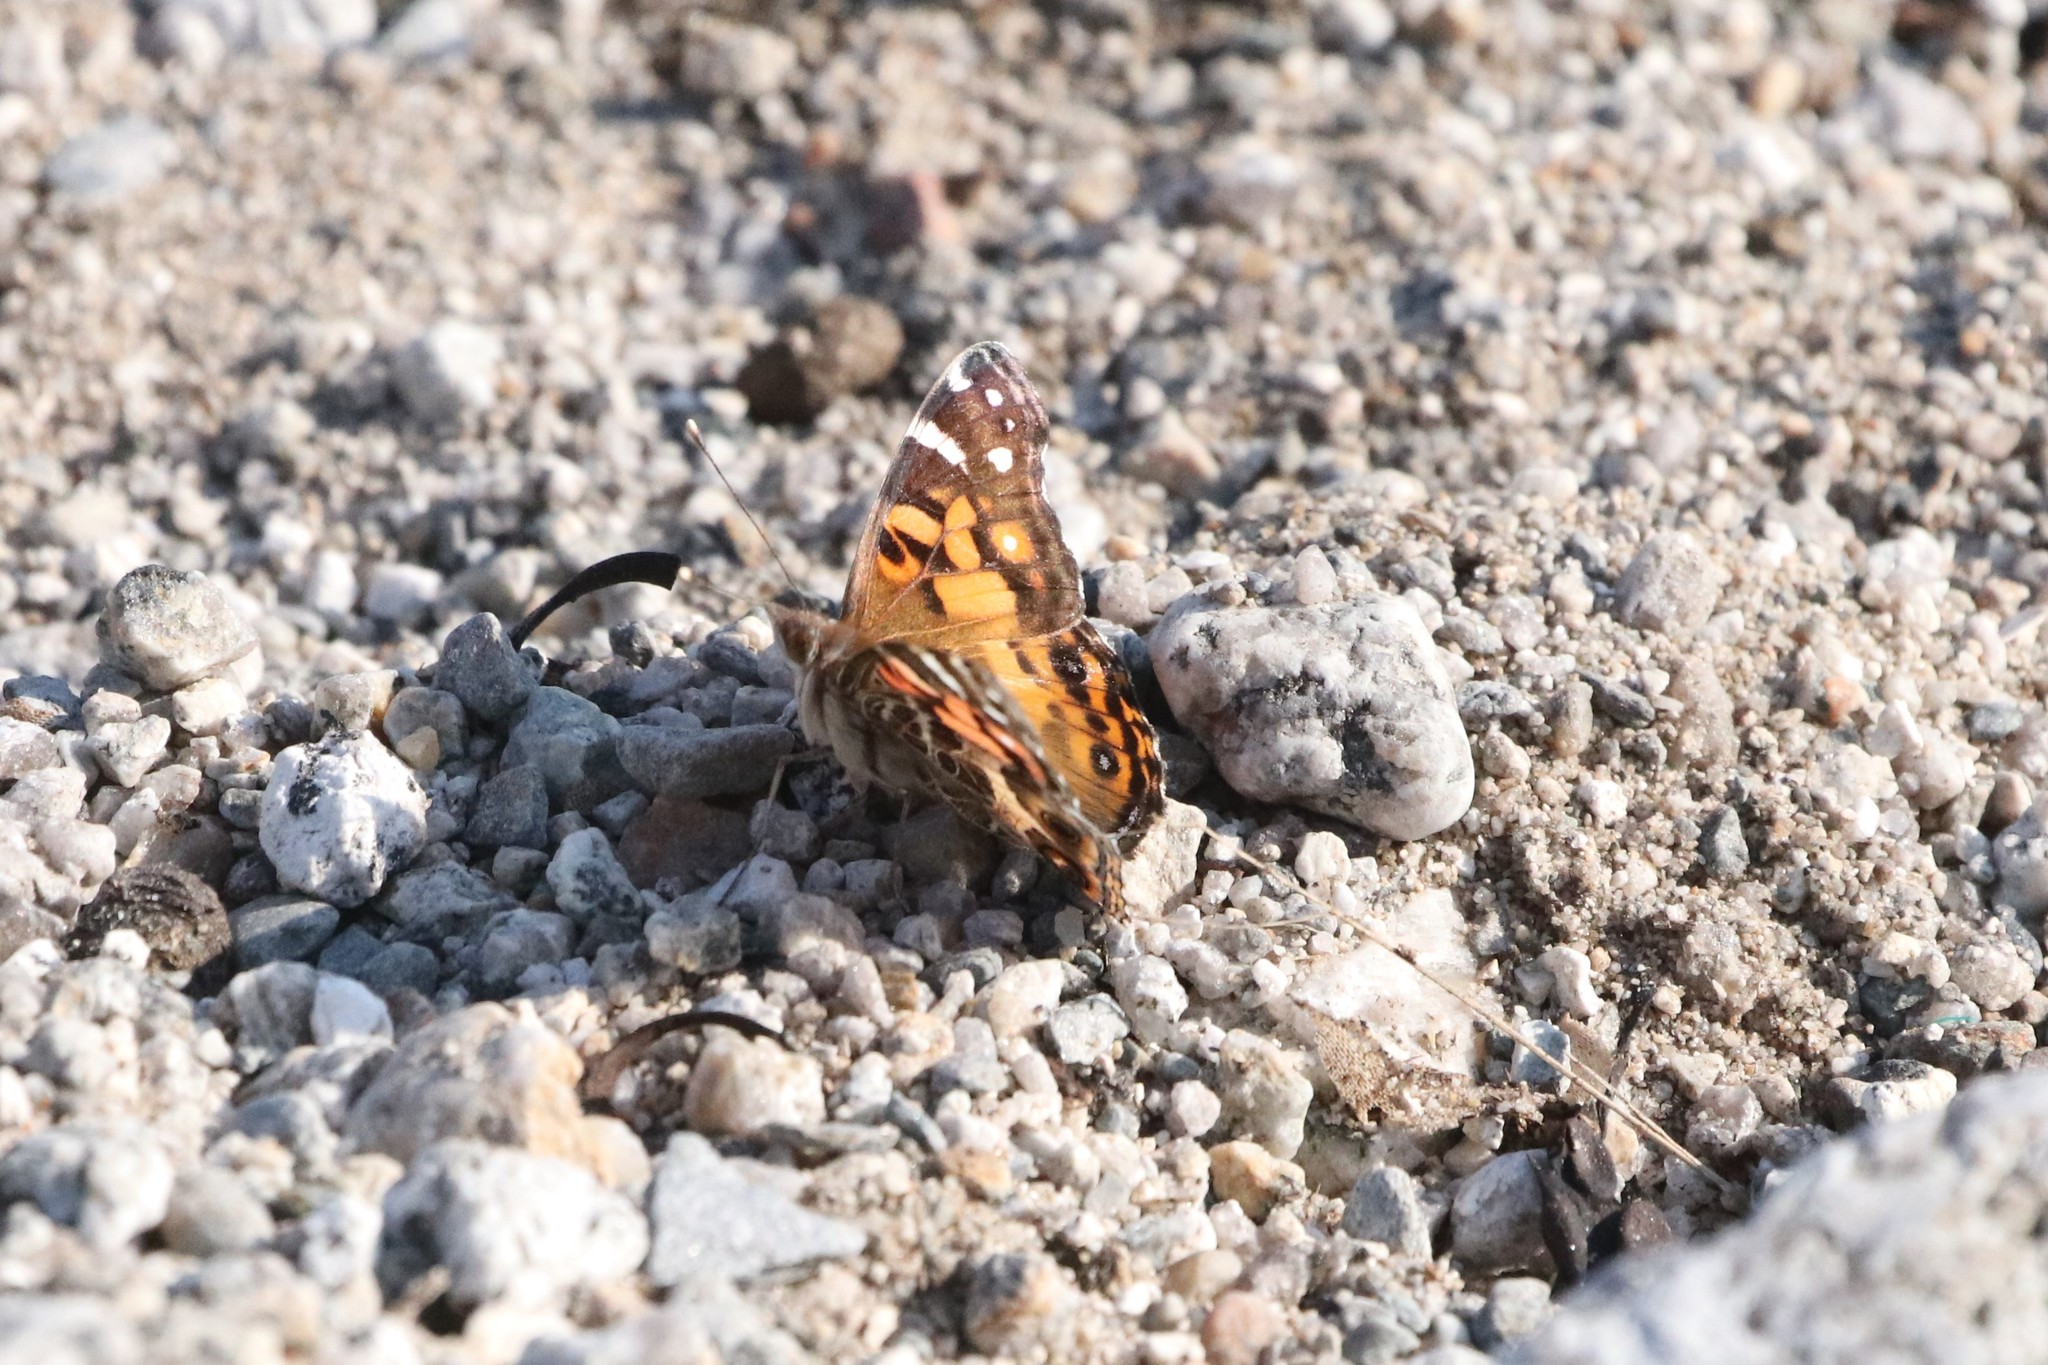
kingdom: Animalia
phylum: Arthropoda
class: Insecta
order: Lepidoptera
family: Nymphalidae
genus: Vanessa
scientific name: Vanessa virginiensis
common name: American lady
